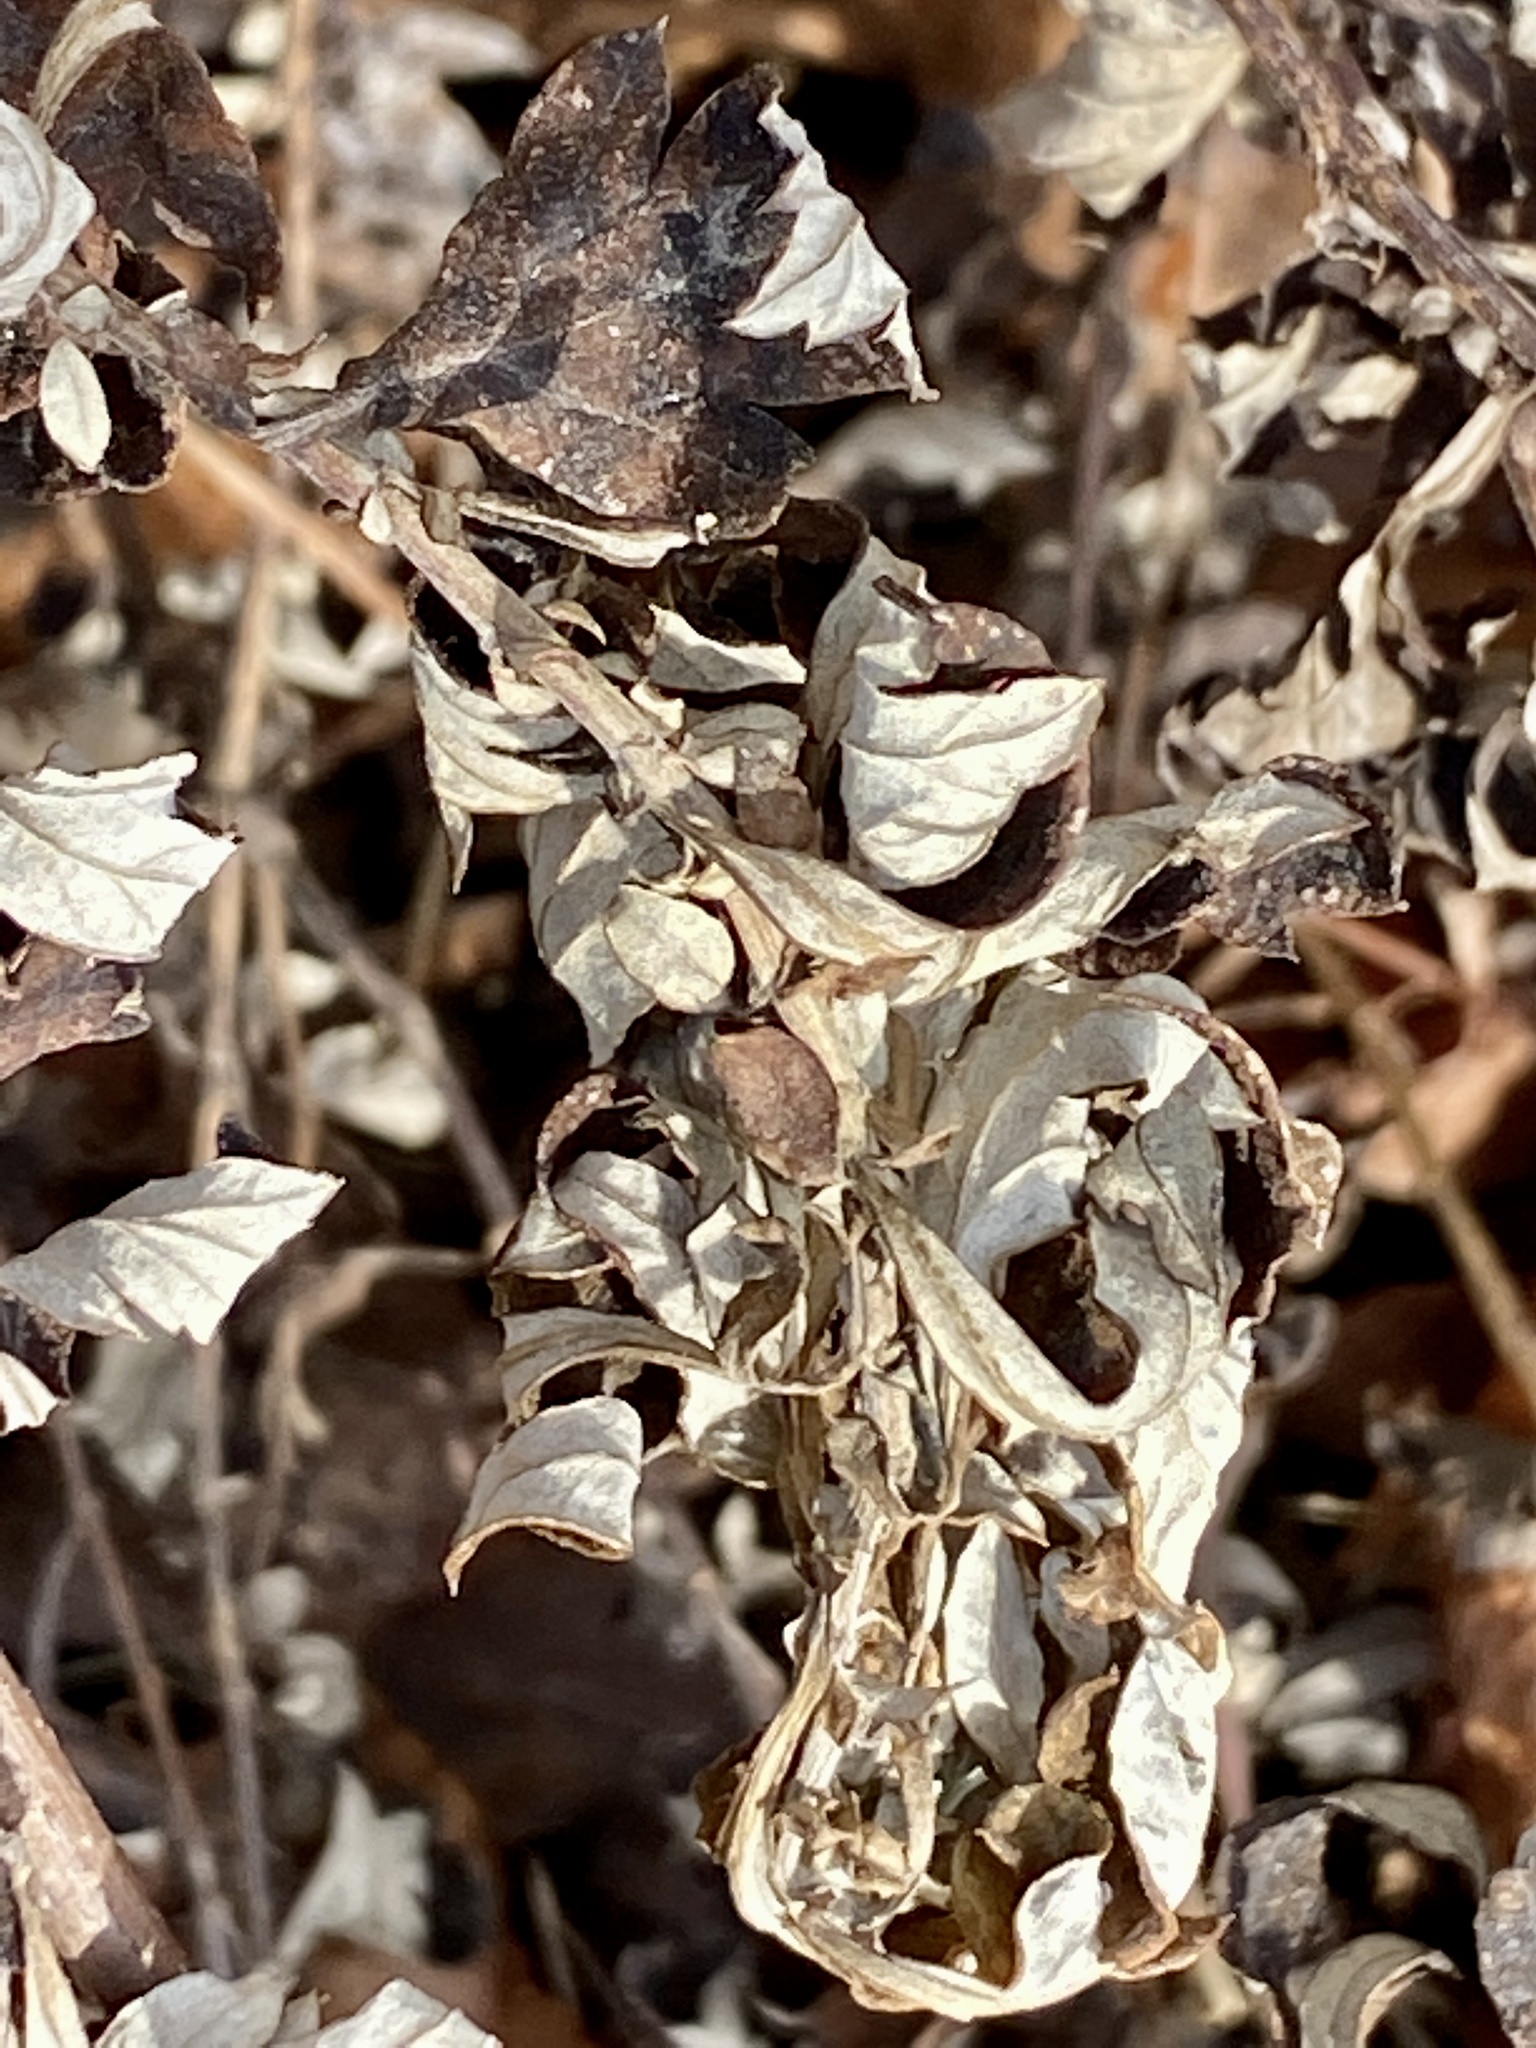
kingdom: Plantae
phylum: Tracheophyta
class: Magnoliopsida
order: Asterales
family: Asteraceae
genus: Artemisia
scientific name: Artemisia vulgaris
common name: Mugwort
